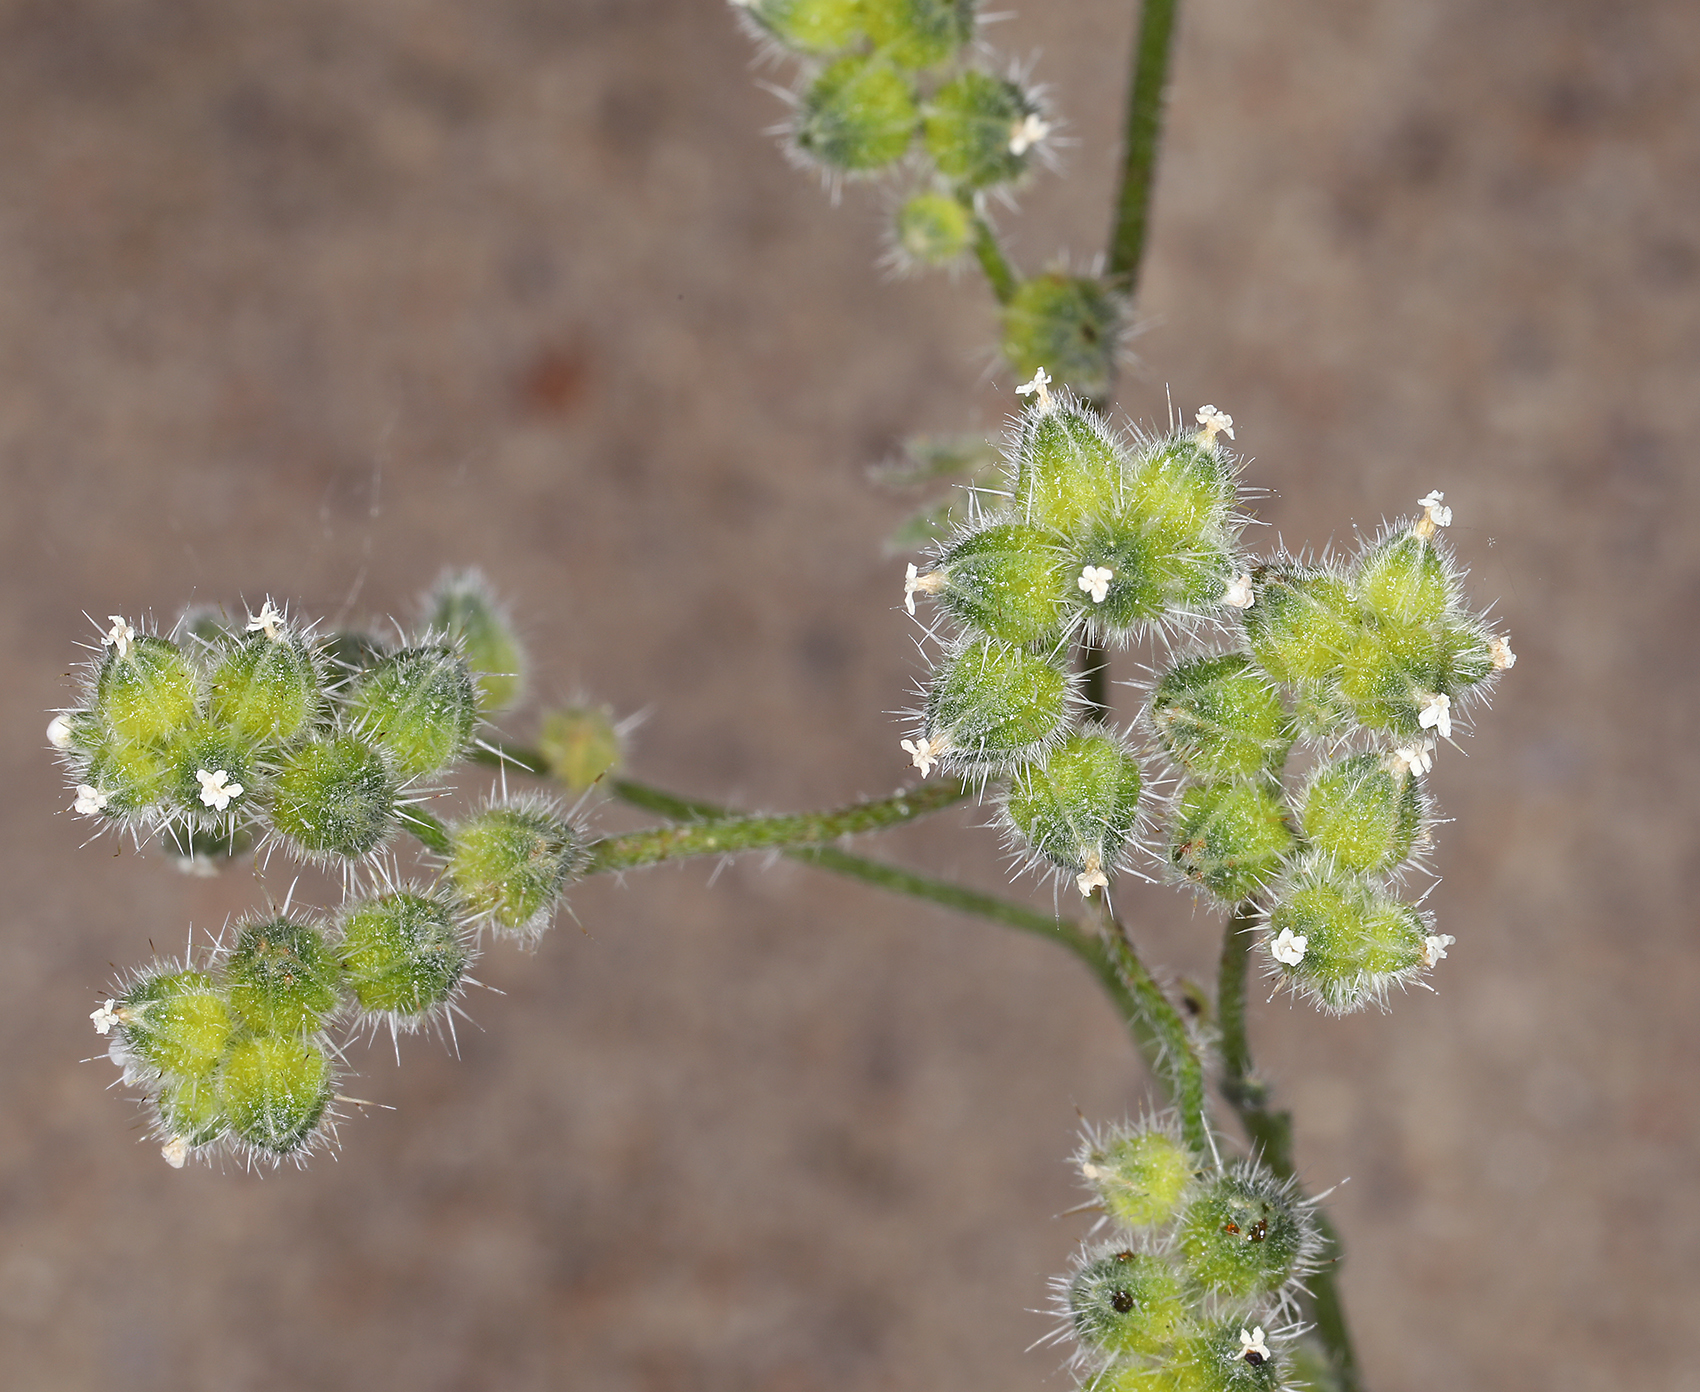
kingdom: Plantae
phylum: Tracheophyta
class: Magnoliopsida
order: Boraginales
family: Boraginaceae
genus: Cryptantha
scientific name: Cryptantha pterocarya
